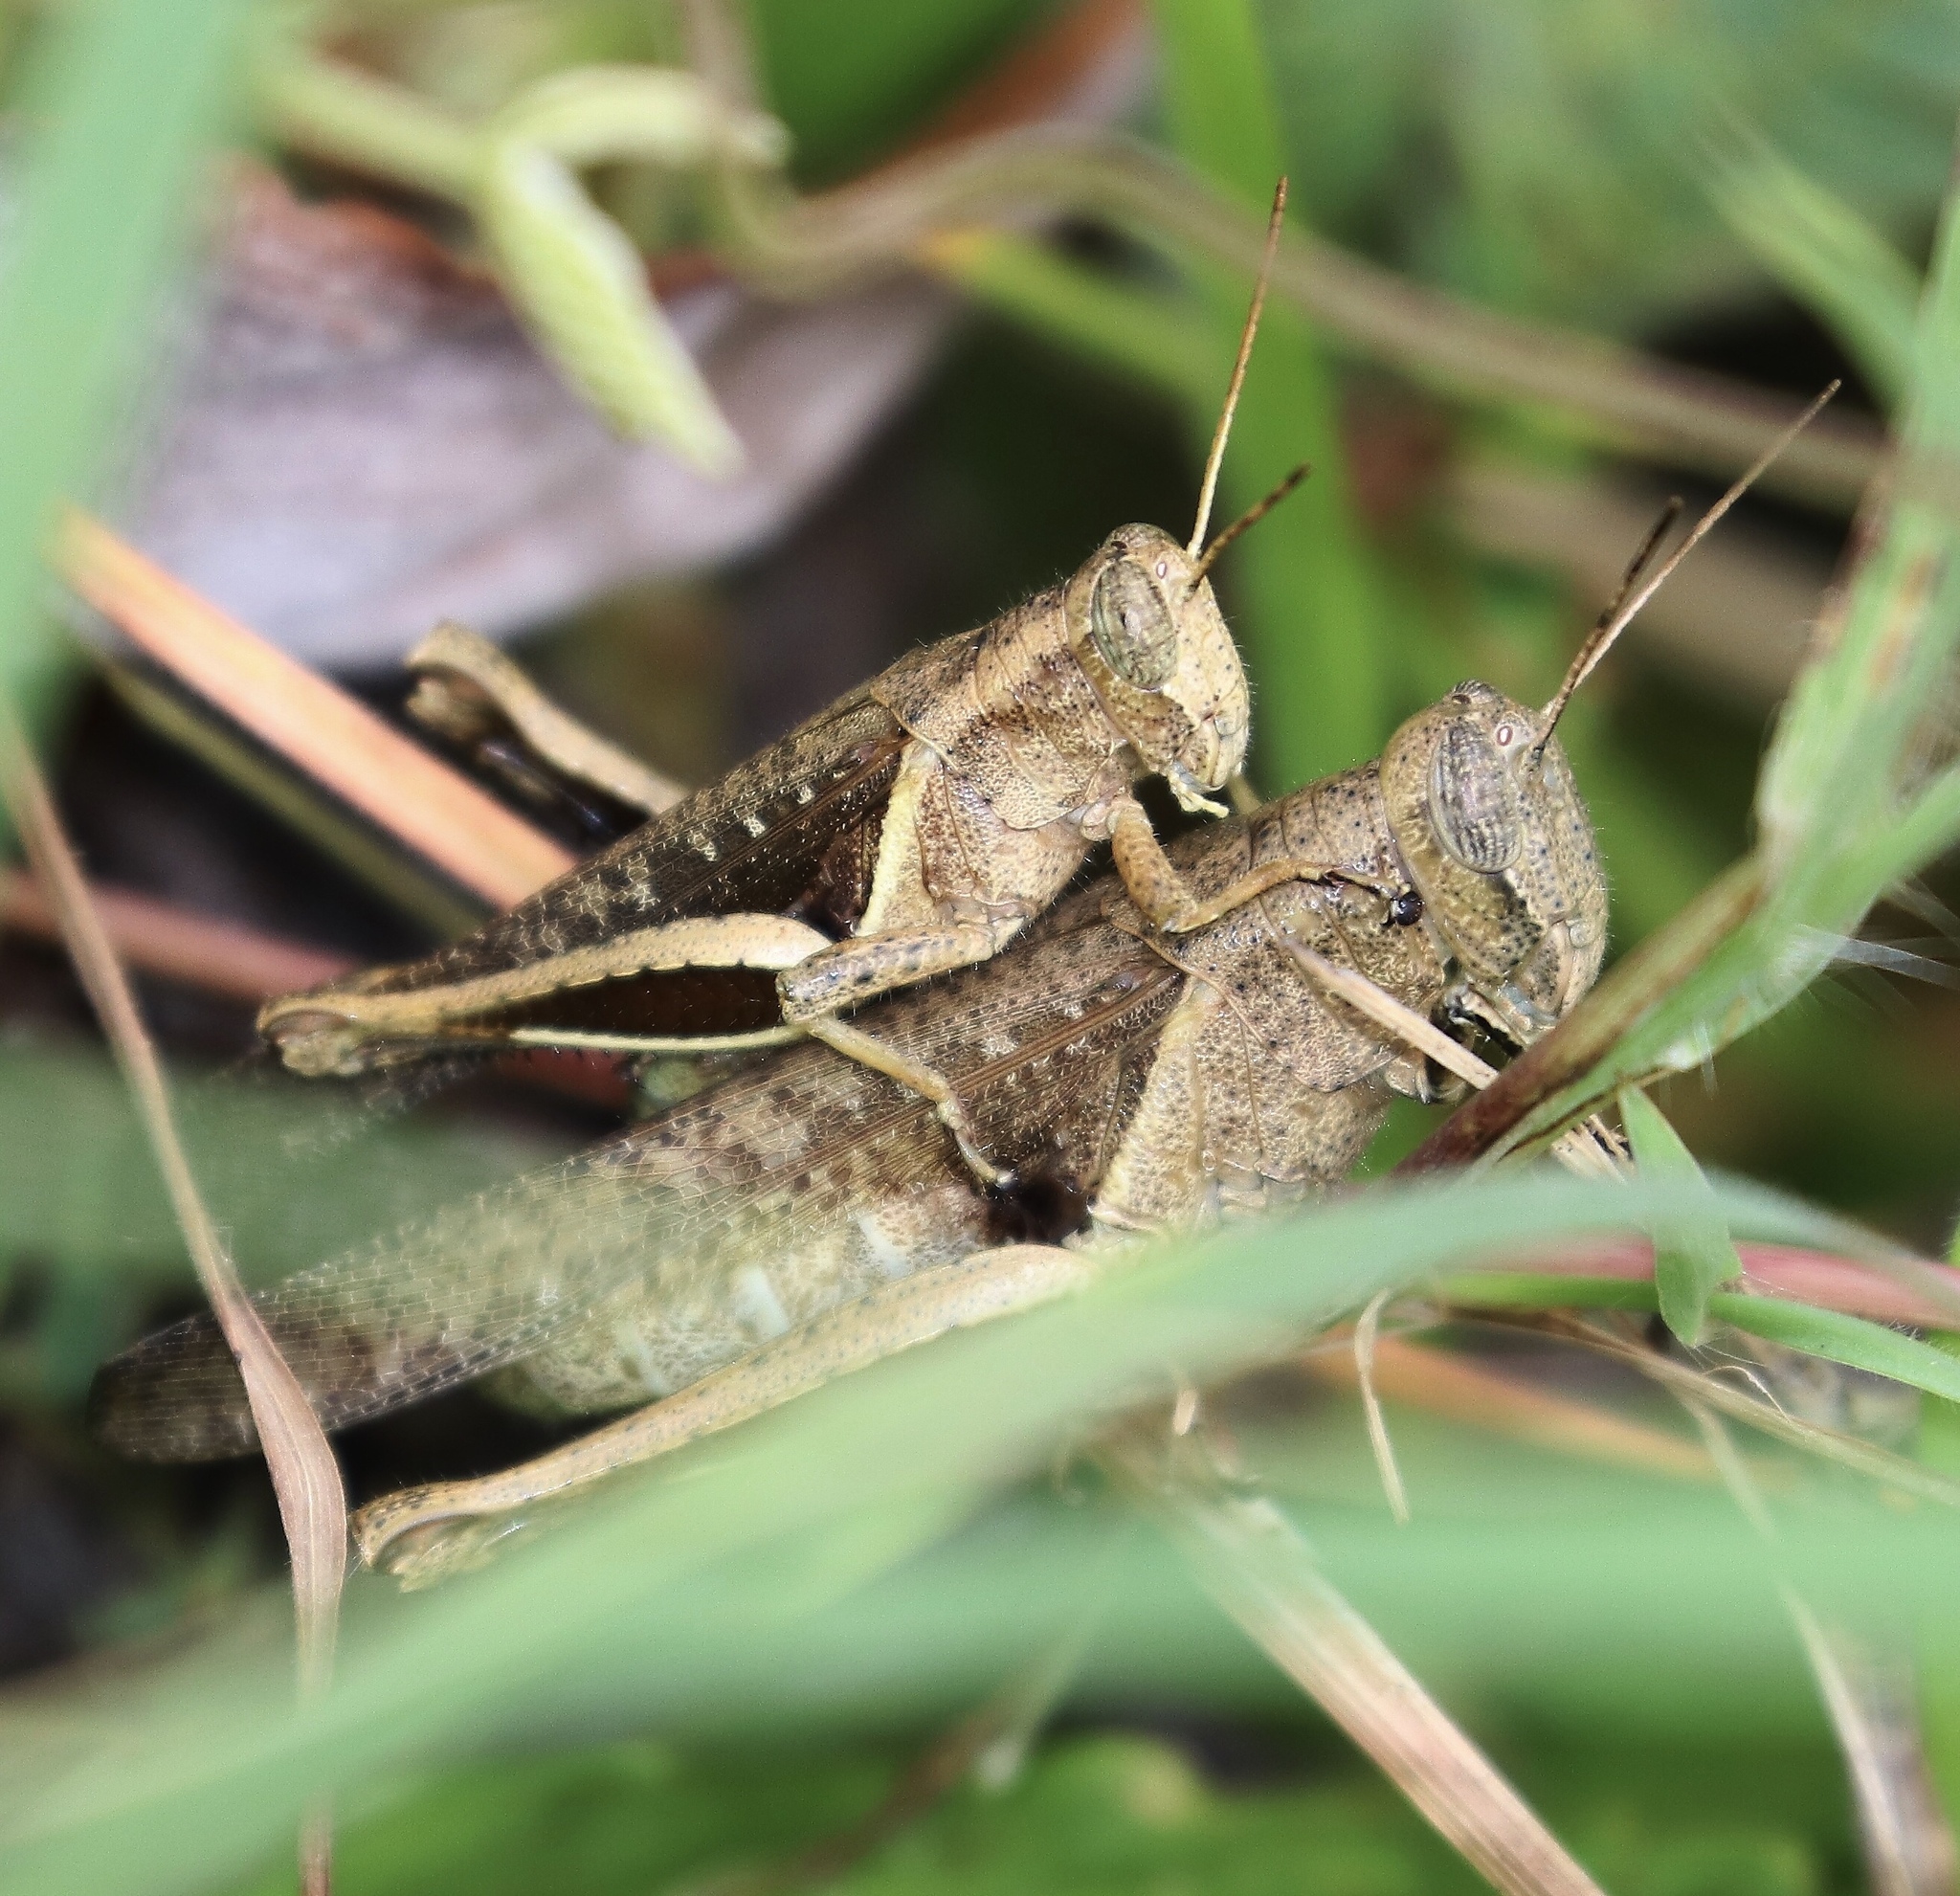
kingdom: Animalia
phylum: Arthropoda
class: Insecta
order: Orthoptera
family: Acrididae
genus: Abracris
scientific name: Abracris flavolineata
